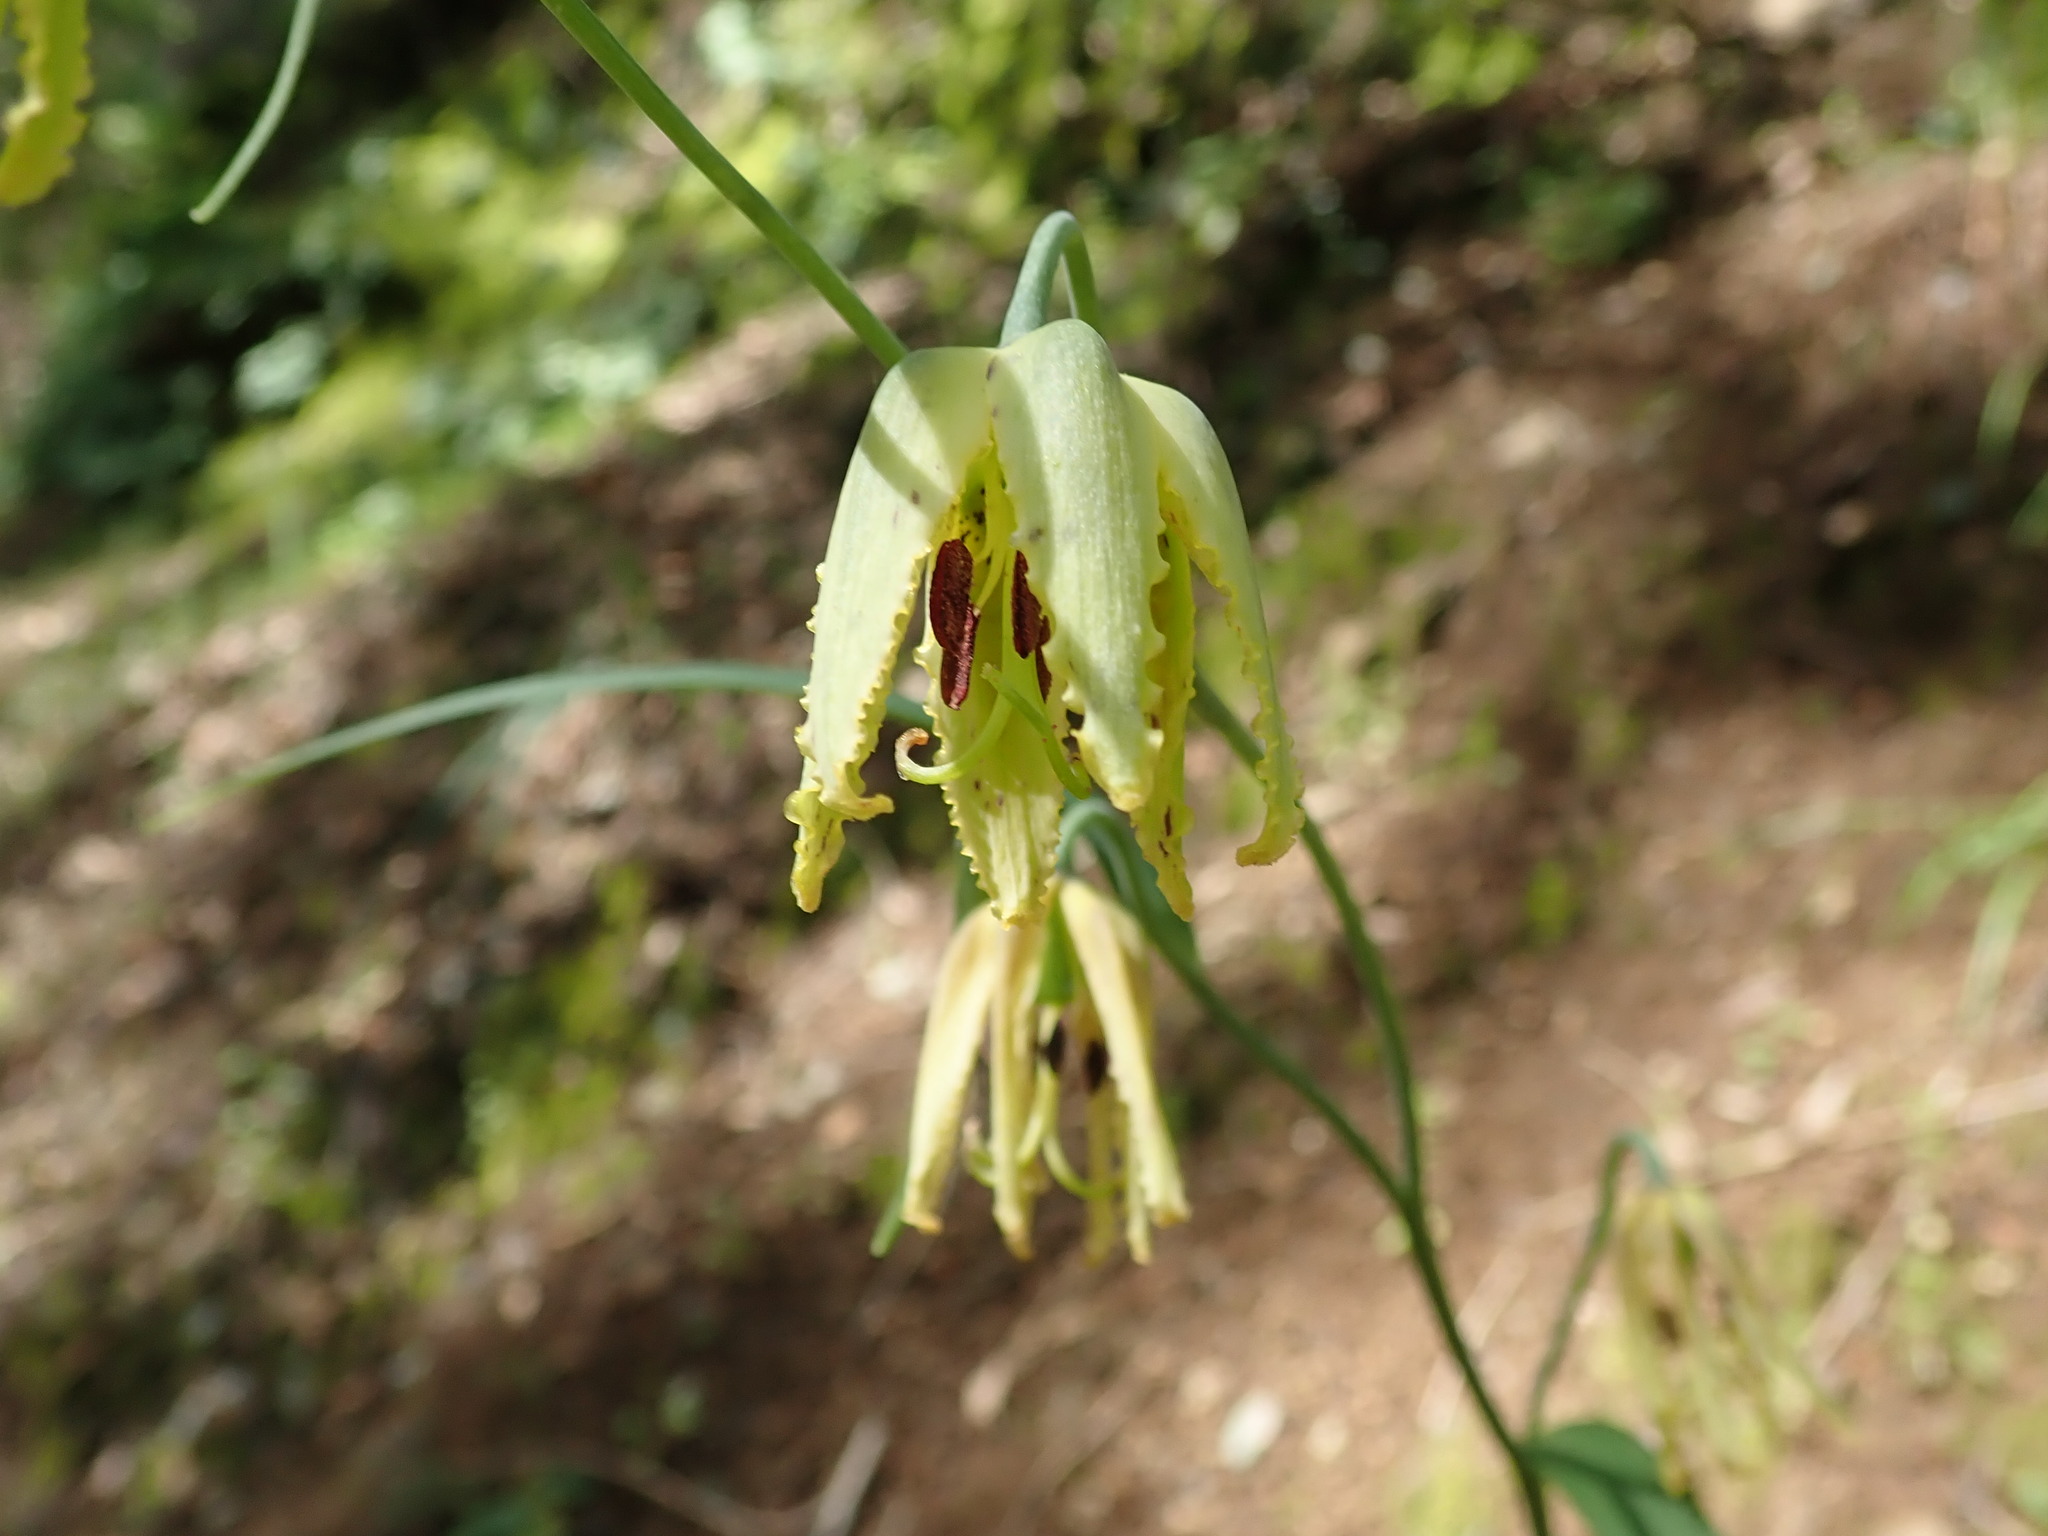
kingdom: Plantae
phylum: Tracheophyta
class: Liliopsida
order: Liliales
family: Liliaceae
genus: Fritillaria
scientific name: Fritillaria affinis
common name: Ojai fritillary
